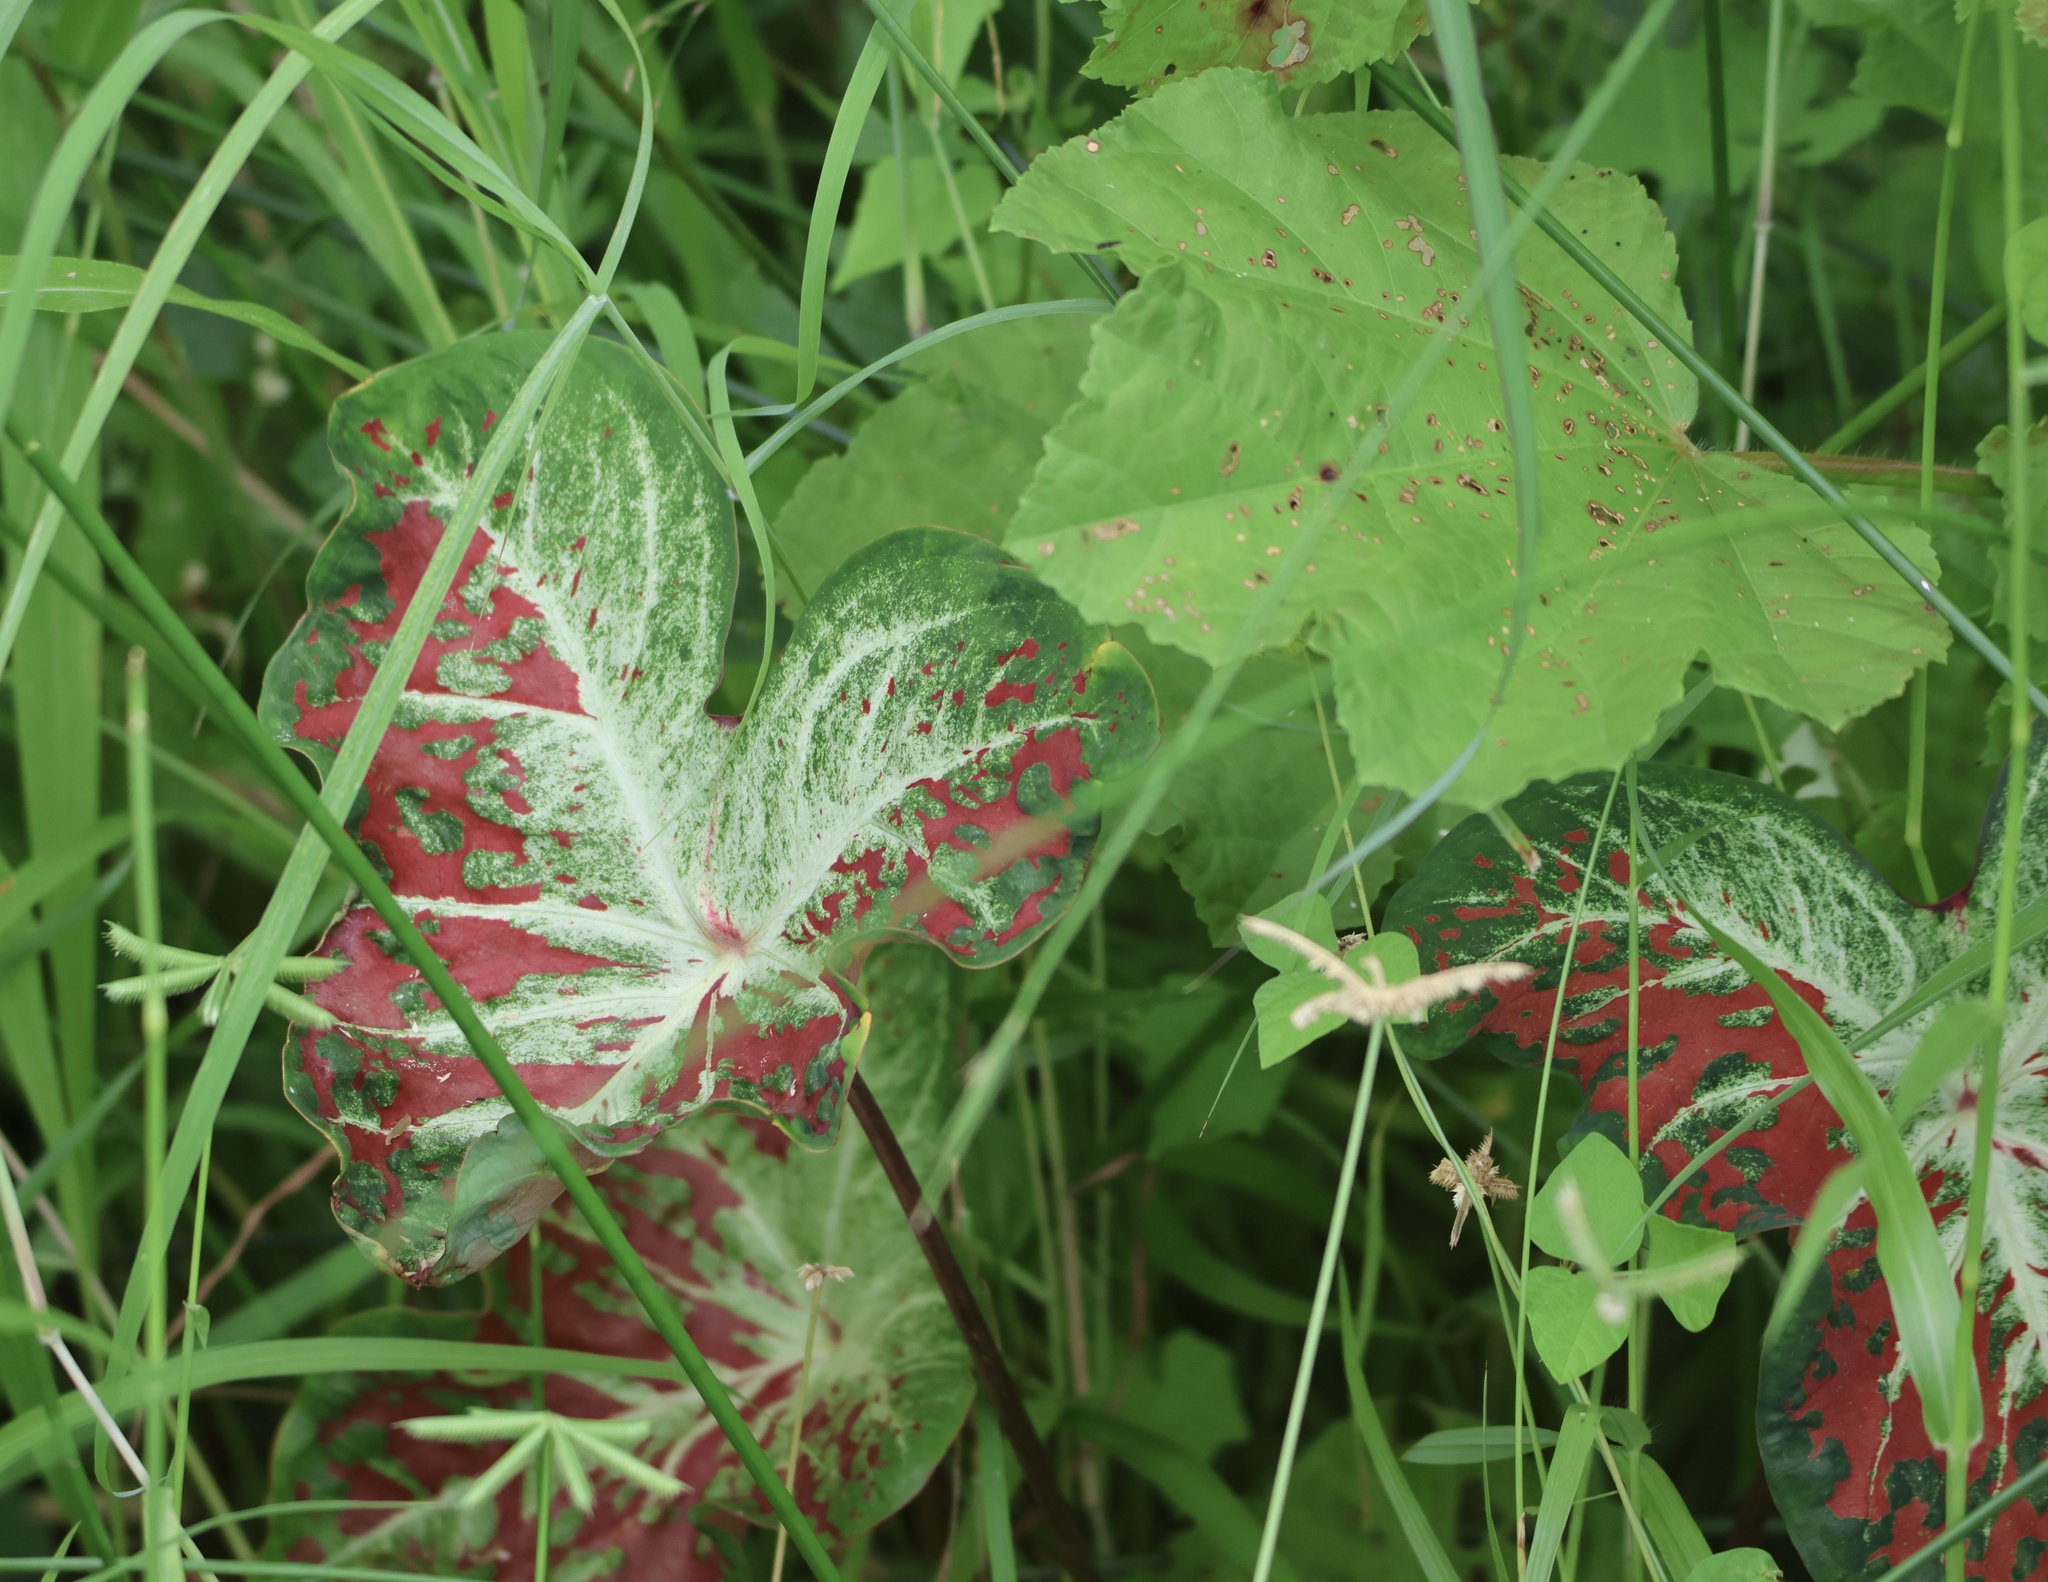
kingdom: Plantae
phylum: Tracheophyta
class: Liliopsida
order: Alismatales
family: Araceae
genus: Caladium
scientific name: Caladium bicolor
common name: Artist's pallet
